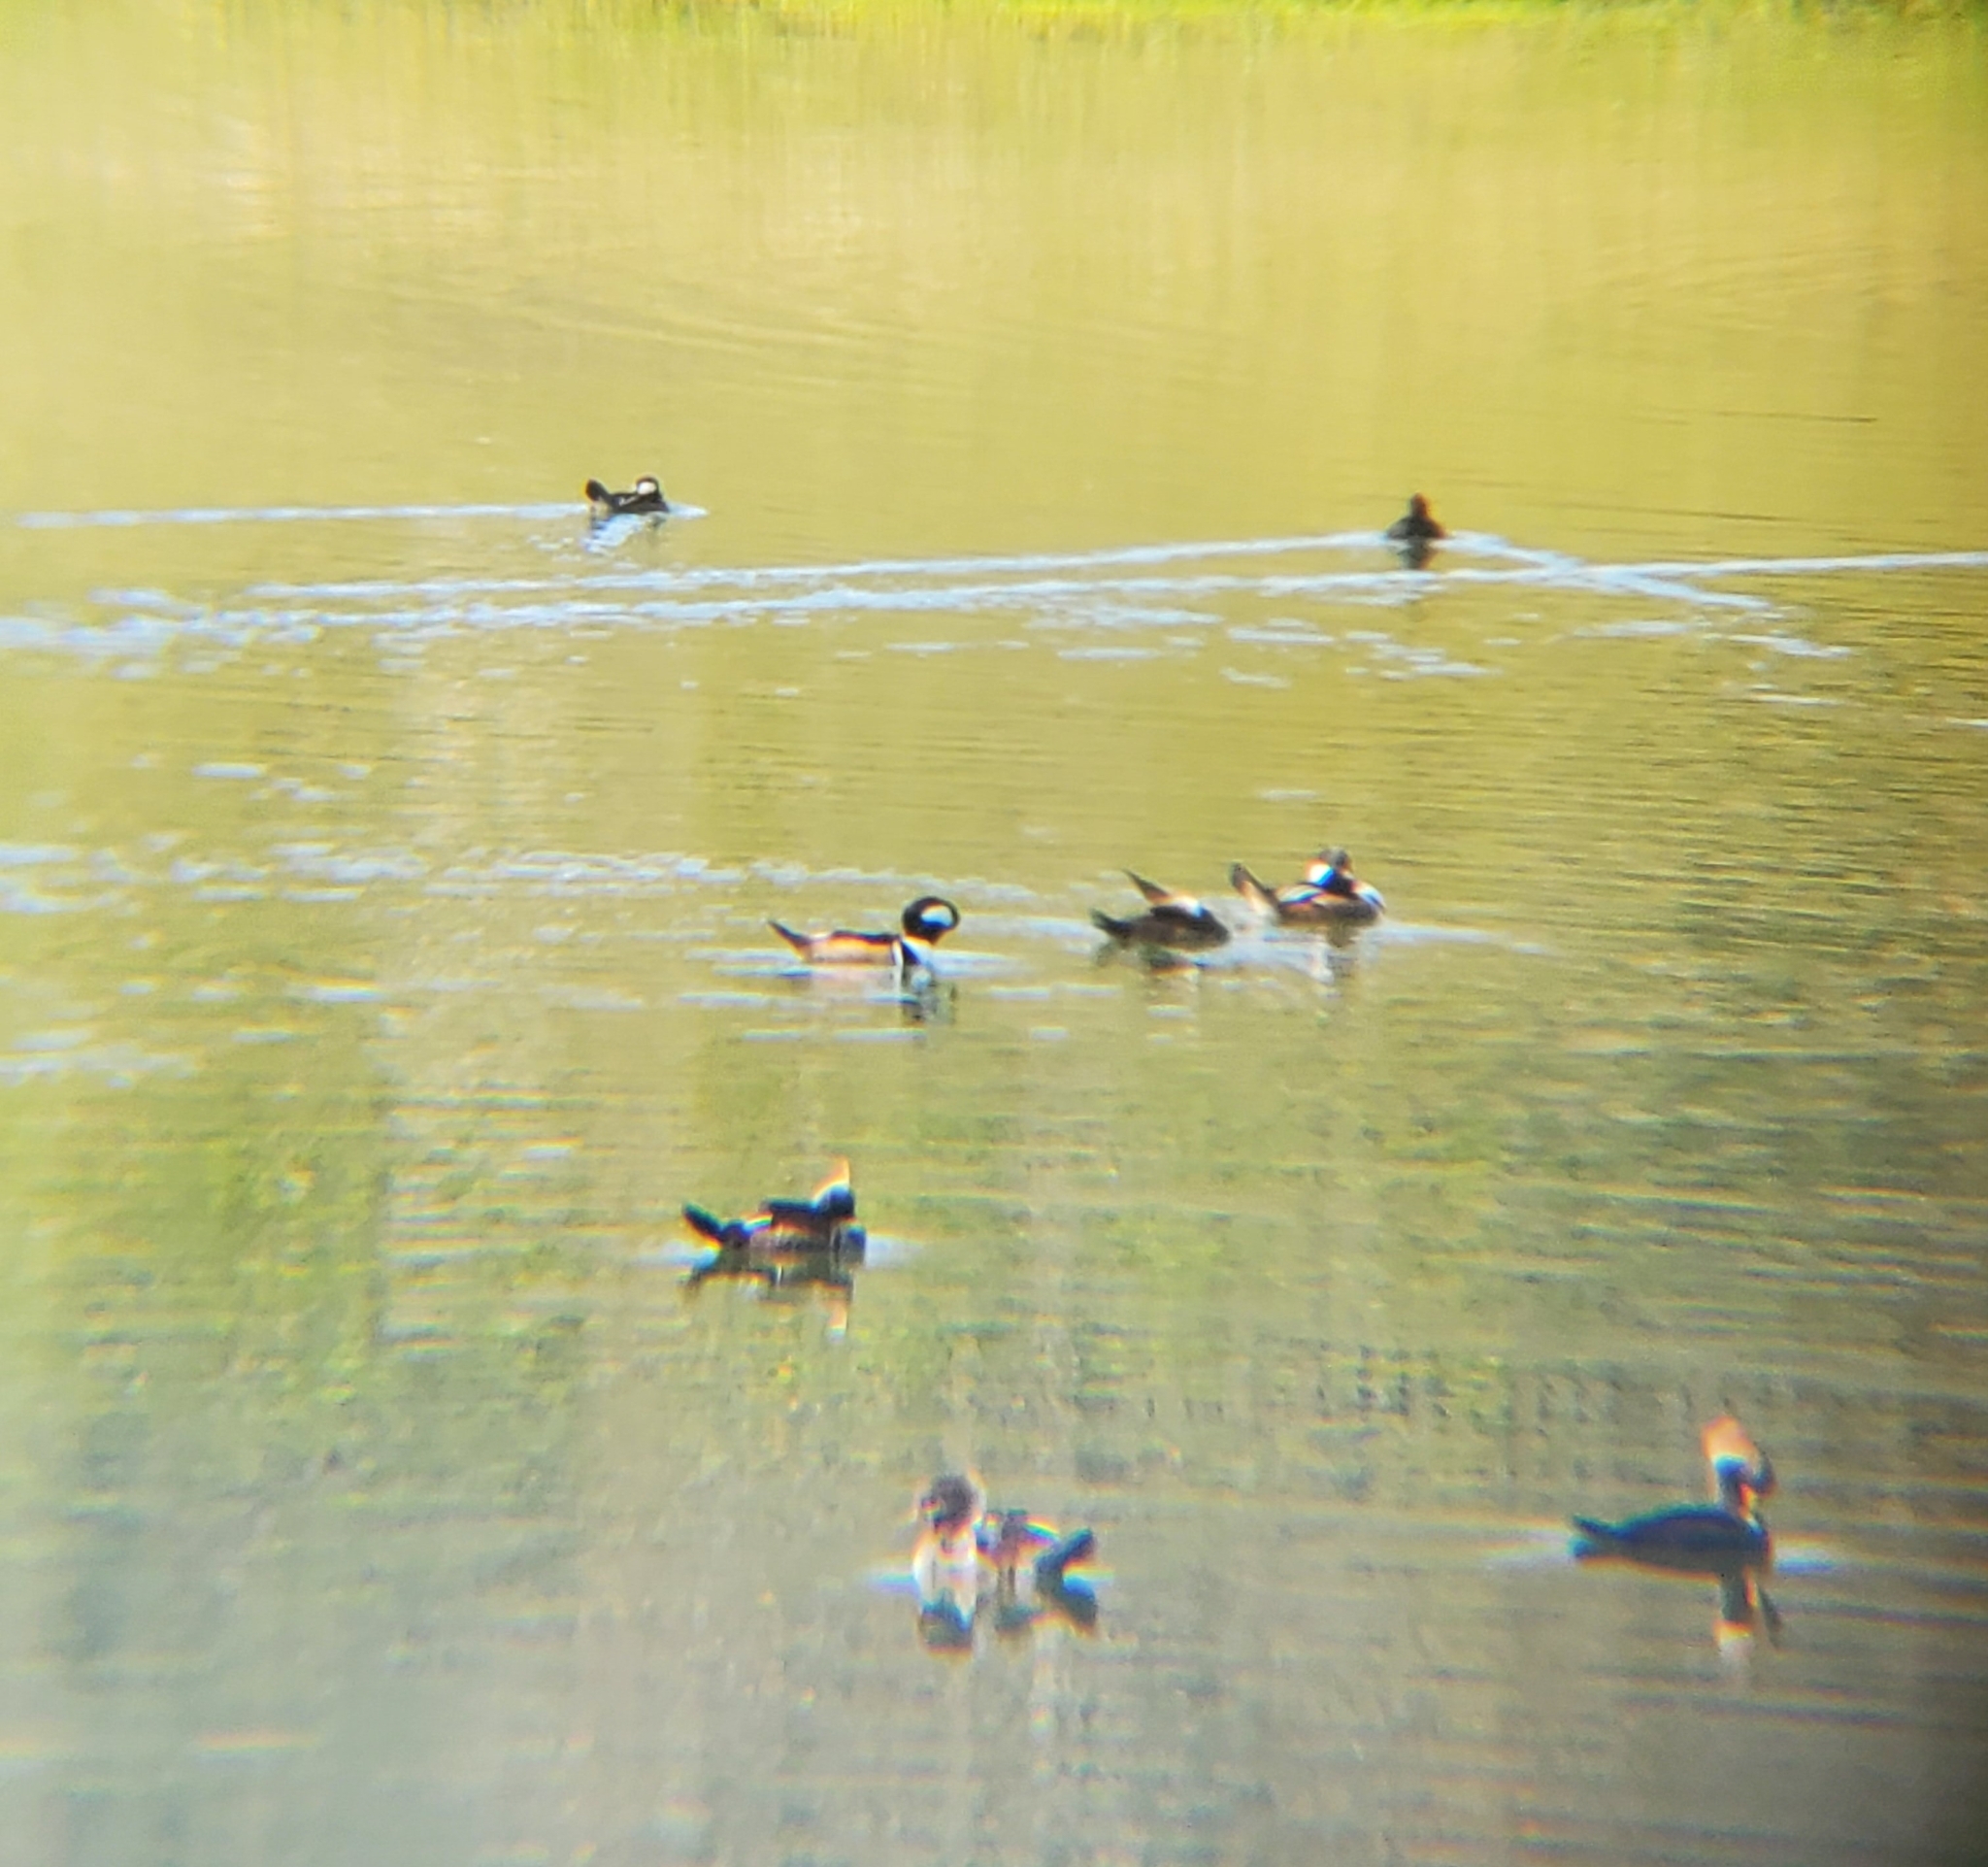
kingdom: Animalia
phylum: Chordata
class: Aves
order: Anseriformes
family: Anatidae
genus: Lophodytes
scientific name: Lophodytes cucullatus
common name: Hooded merganser
